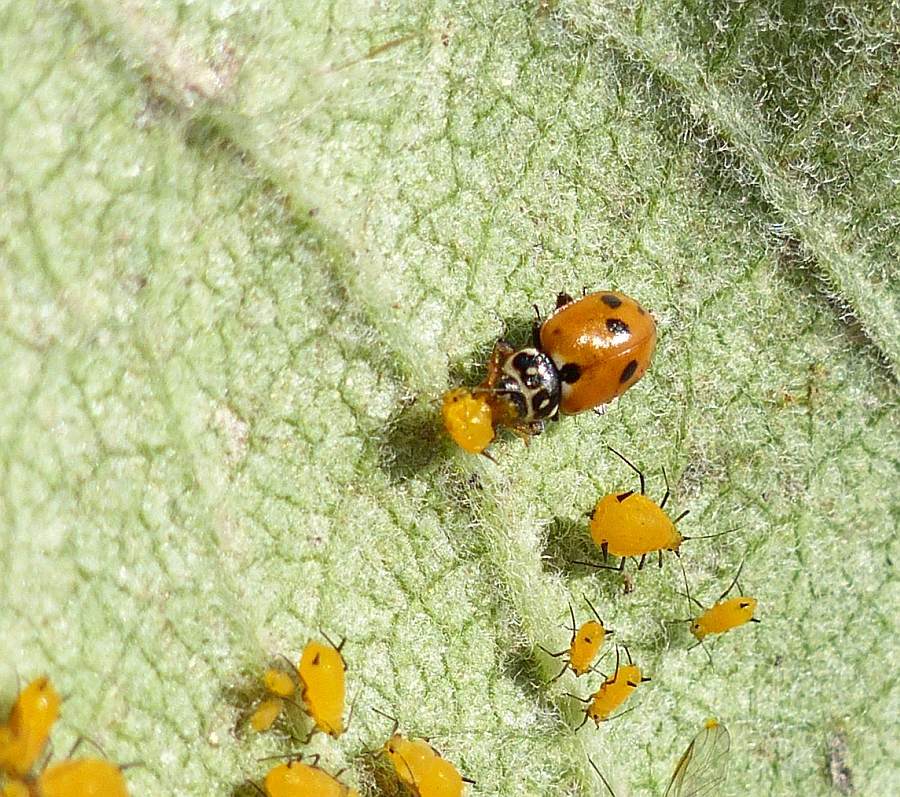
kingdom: Animalia
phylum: Arthropoda
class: Insecta
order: Coleoptera
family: Coccinellidae
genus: Hippodamia
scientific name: Hippodamia variegata
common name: Ladybird beetle
